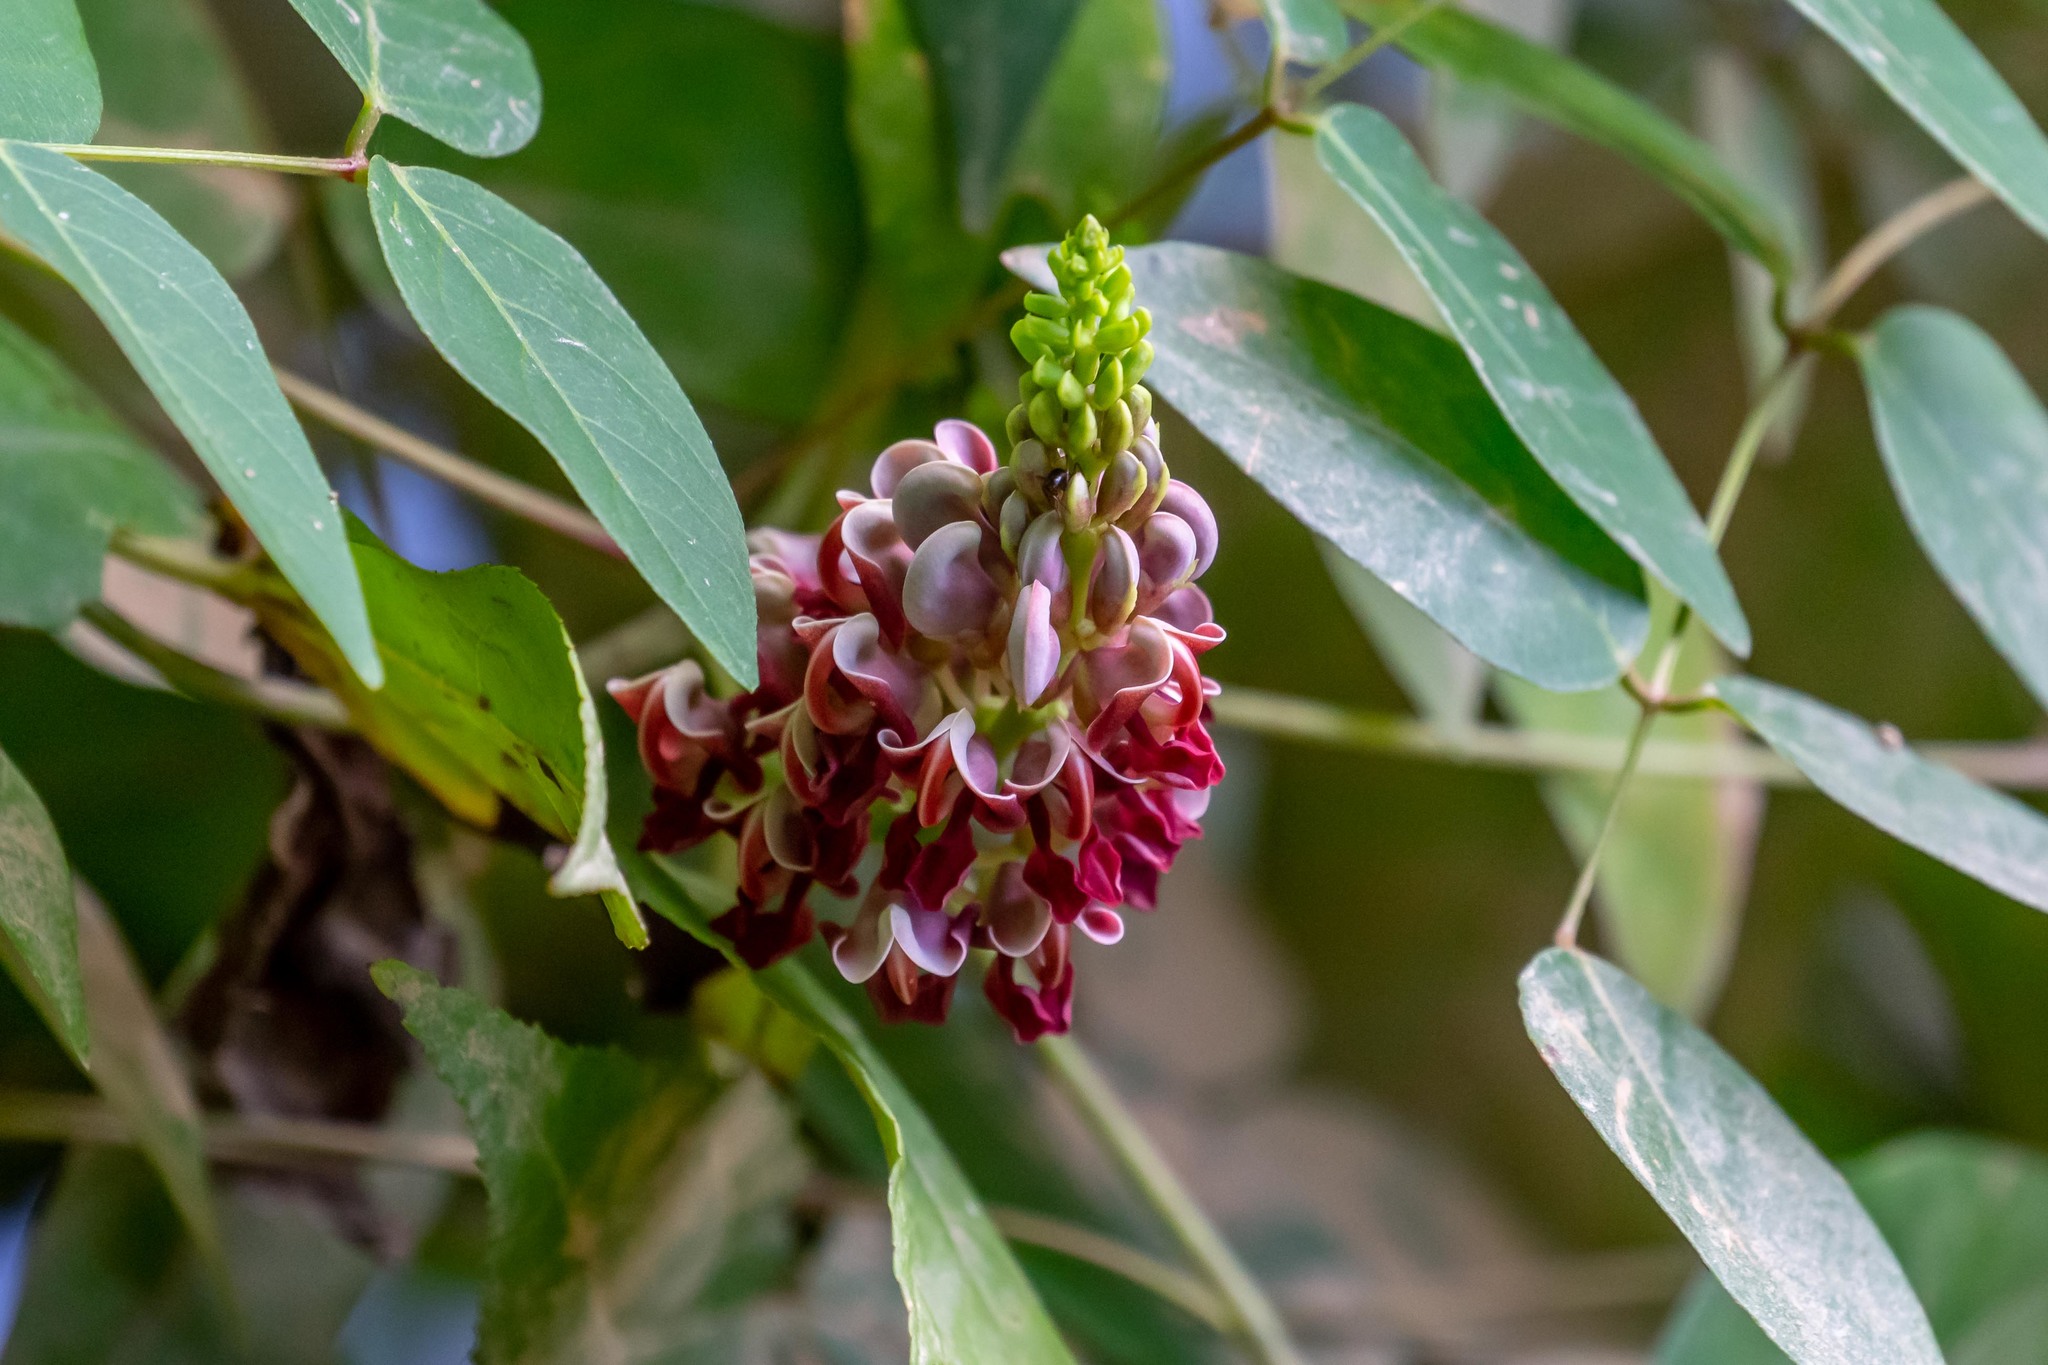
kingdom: Plantae
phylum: Tracheophyta
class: Magnoliopsida
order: Fabales
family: Fabaceae
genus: Apios
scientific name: Apios americana
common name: American potato-bean
